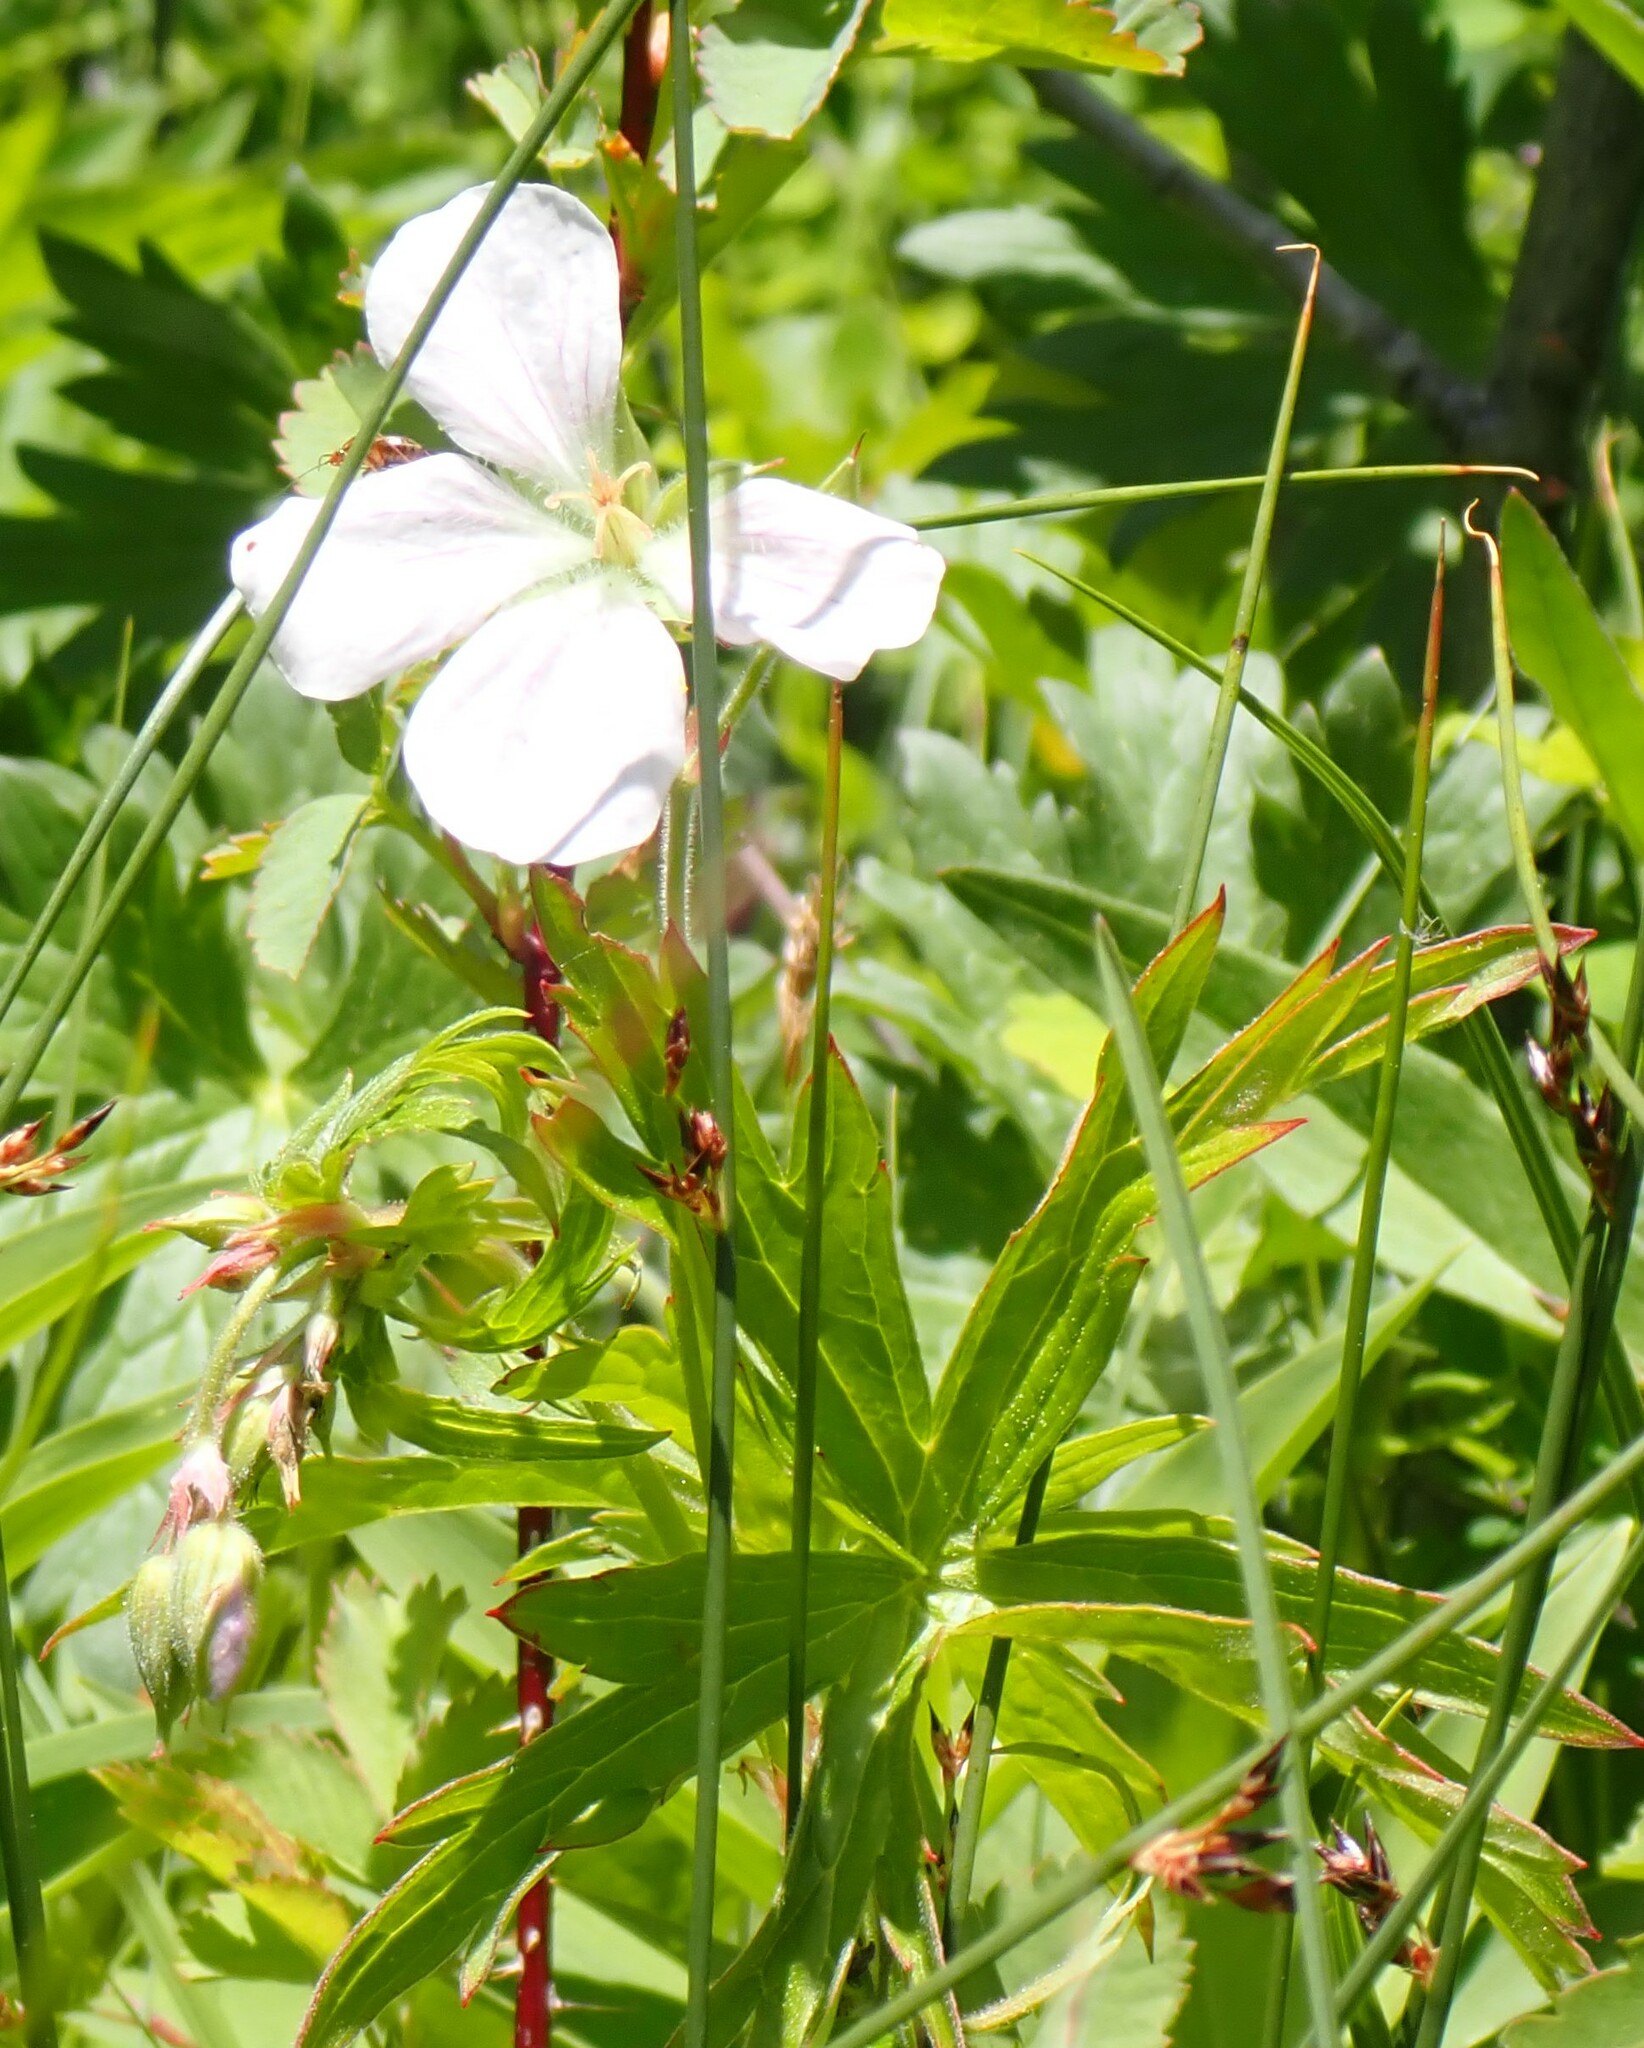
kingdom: Plantae
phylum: Tracheophyta
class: Magnoliopsida
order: Geraniales
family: Geraniaceae
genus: Geranium
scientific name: Geranium richardsonii
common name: Richardson's crane's-bill
